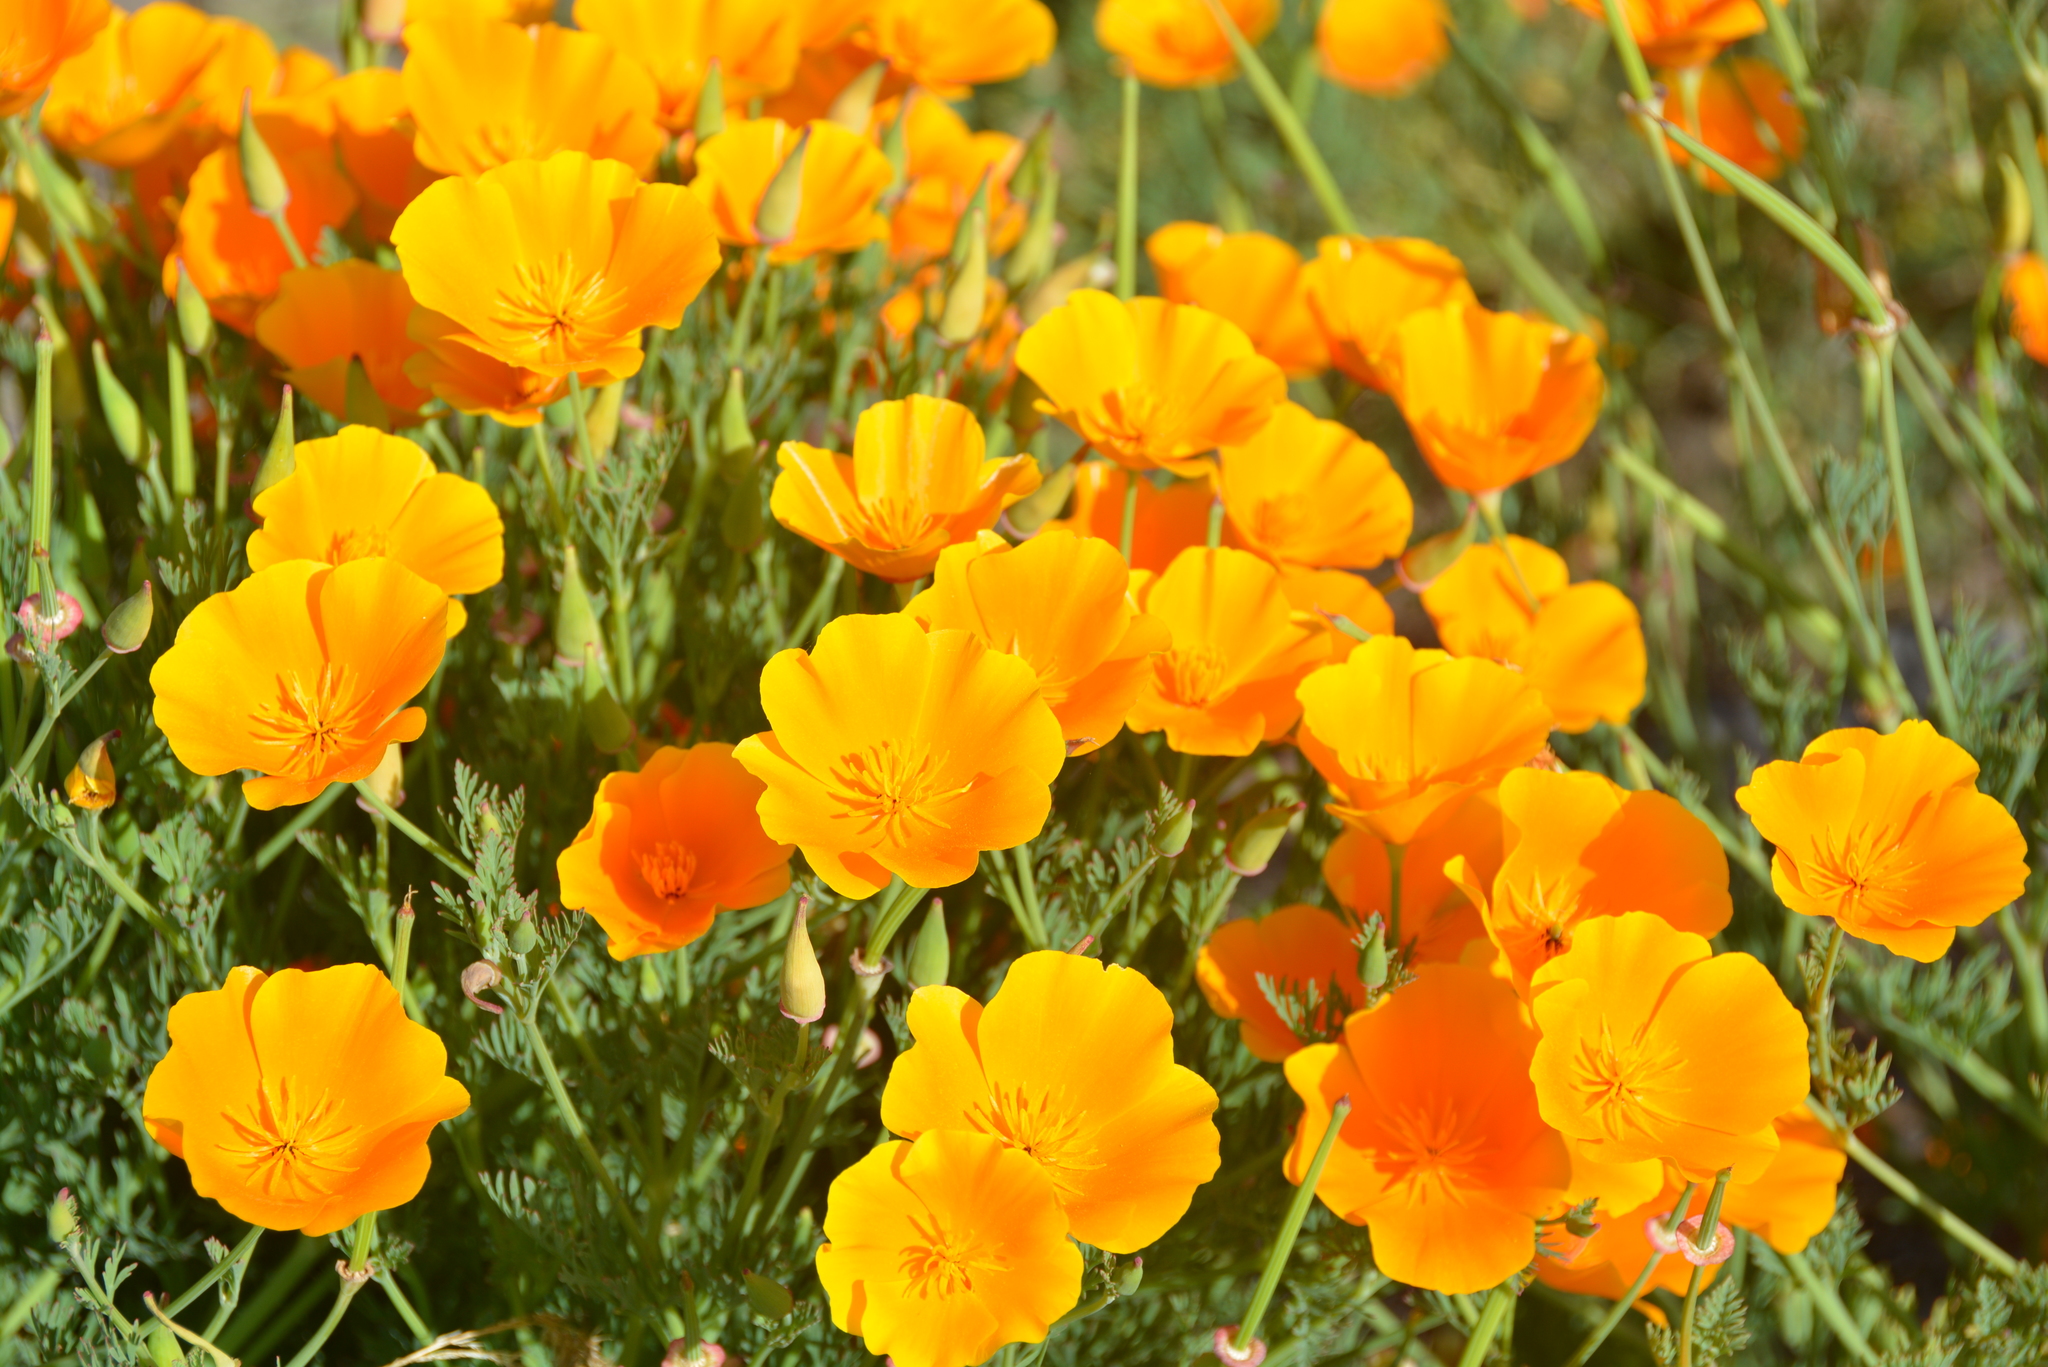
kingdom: Plantae
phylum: Tracheophyta
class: Magnoliopsida
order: Ranunculales
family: Papaveraceae
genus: Eschscholzia
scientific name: Eschscholzia californica
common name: California poppy
